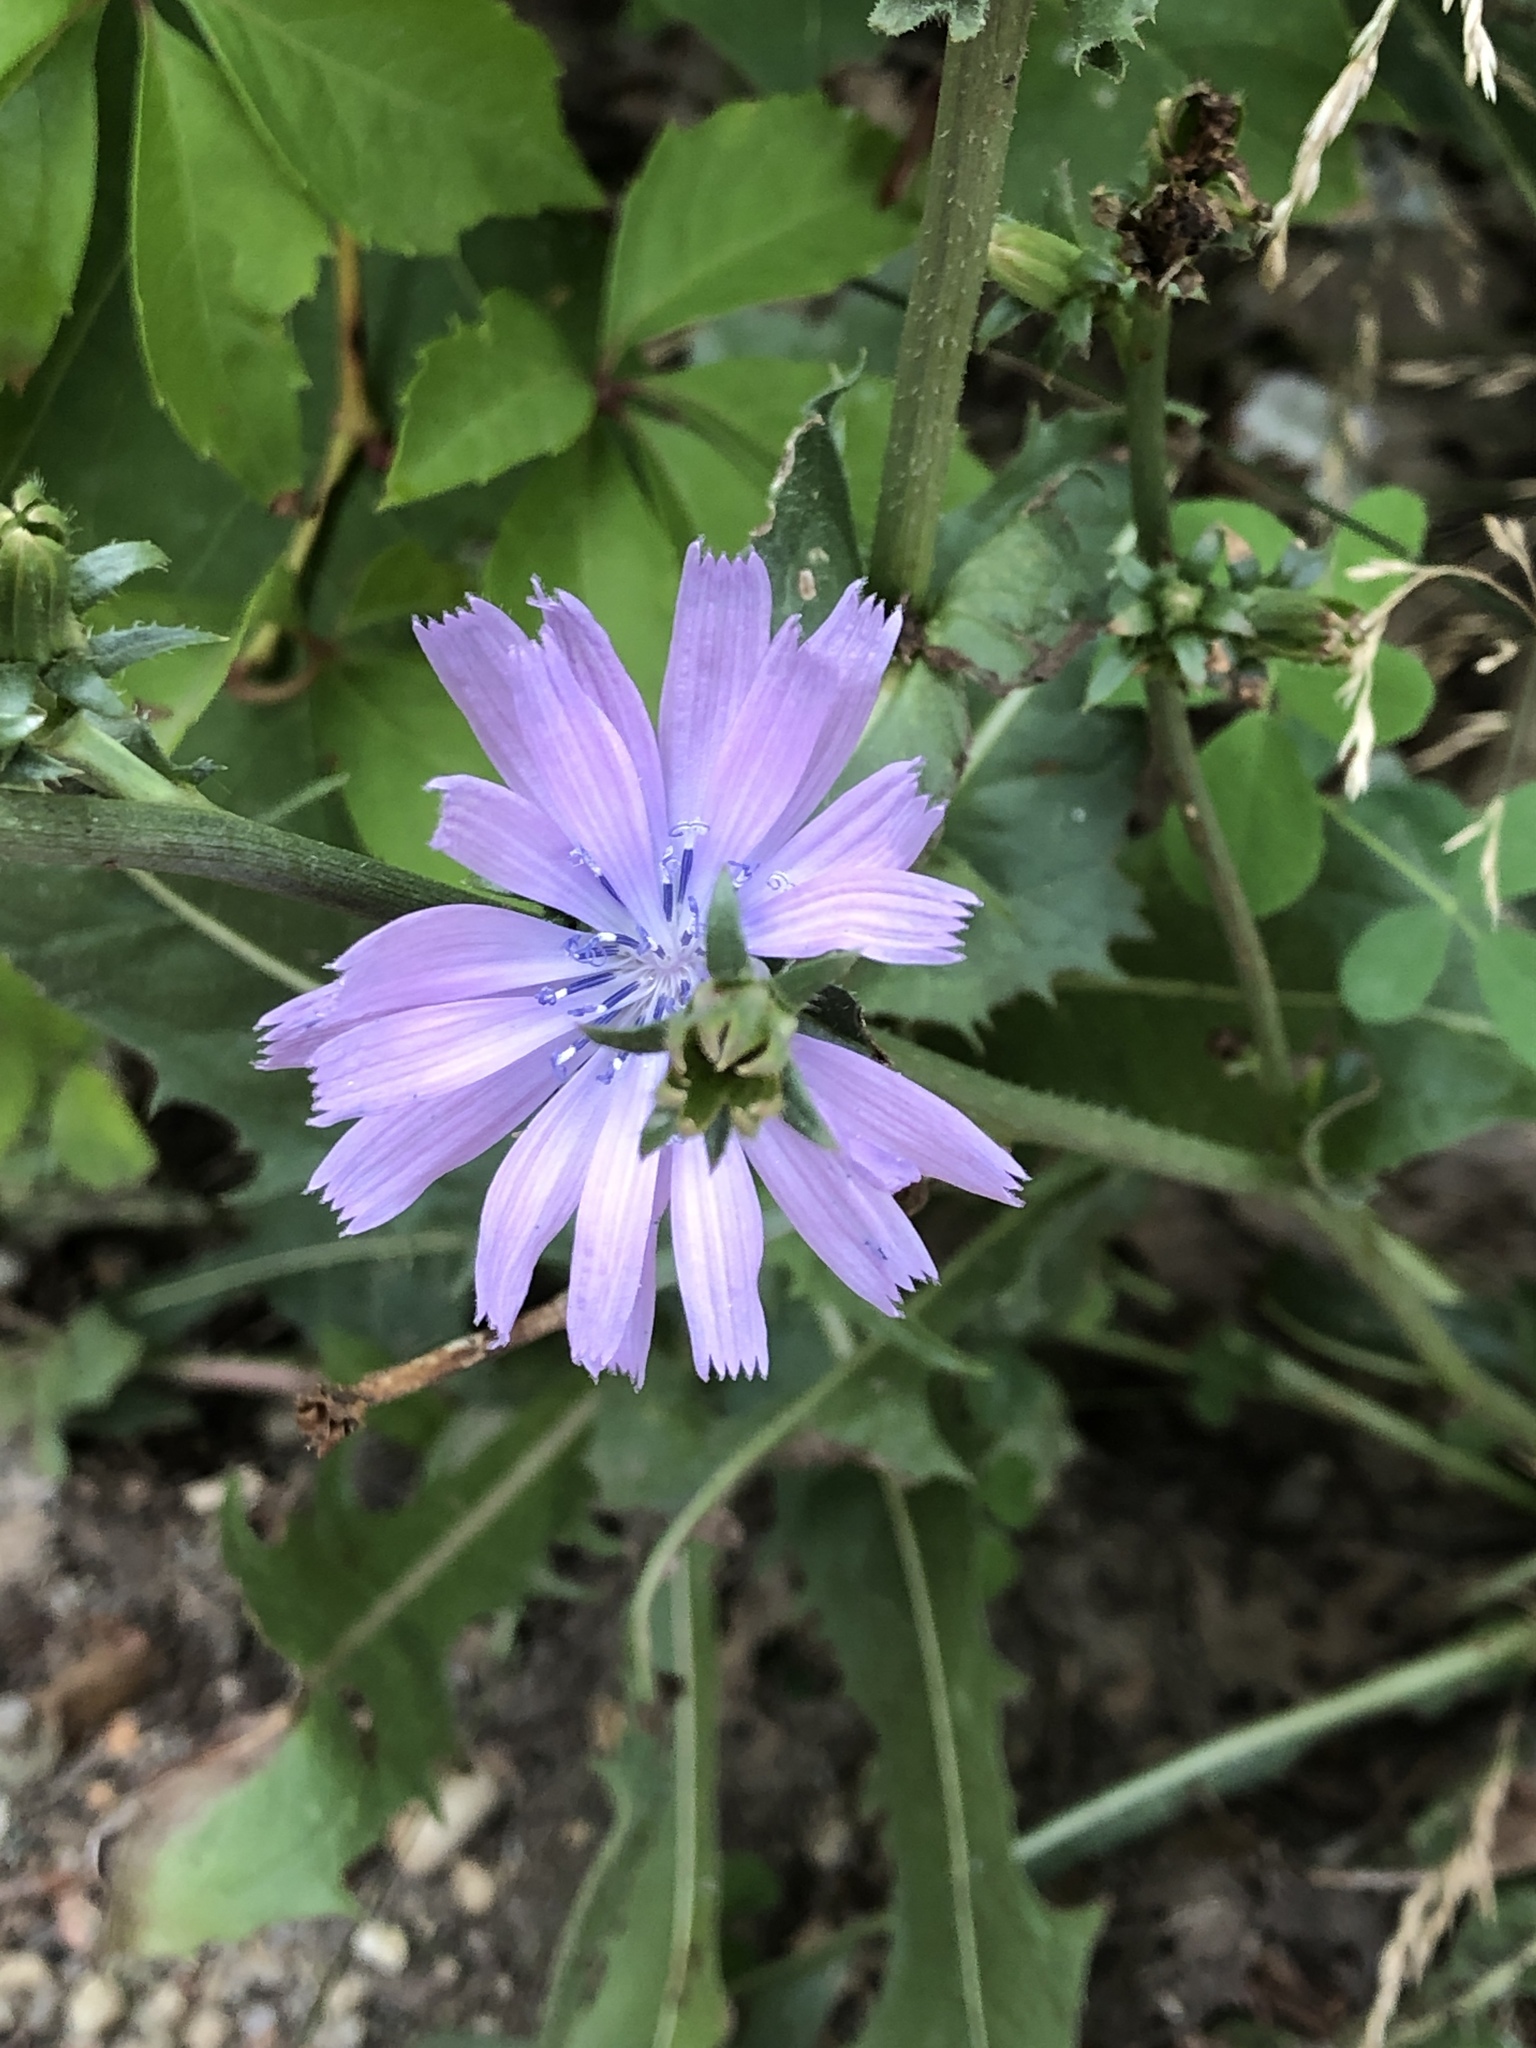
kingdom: Plantae
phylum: Tracheophyta
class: Magnoliopsida
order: Asterales
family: Asteraceae
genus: Cichorium
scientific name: Cichorium intybus
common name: Chicory
